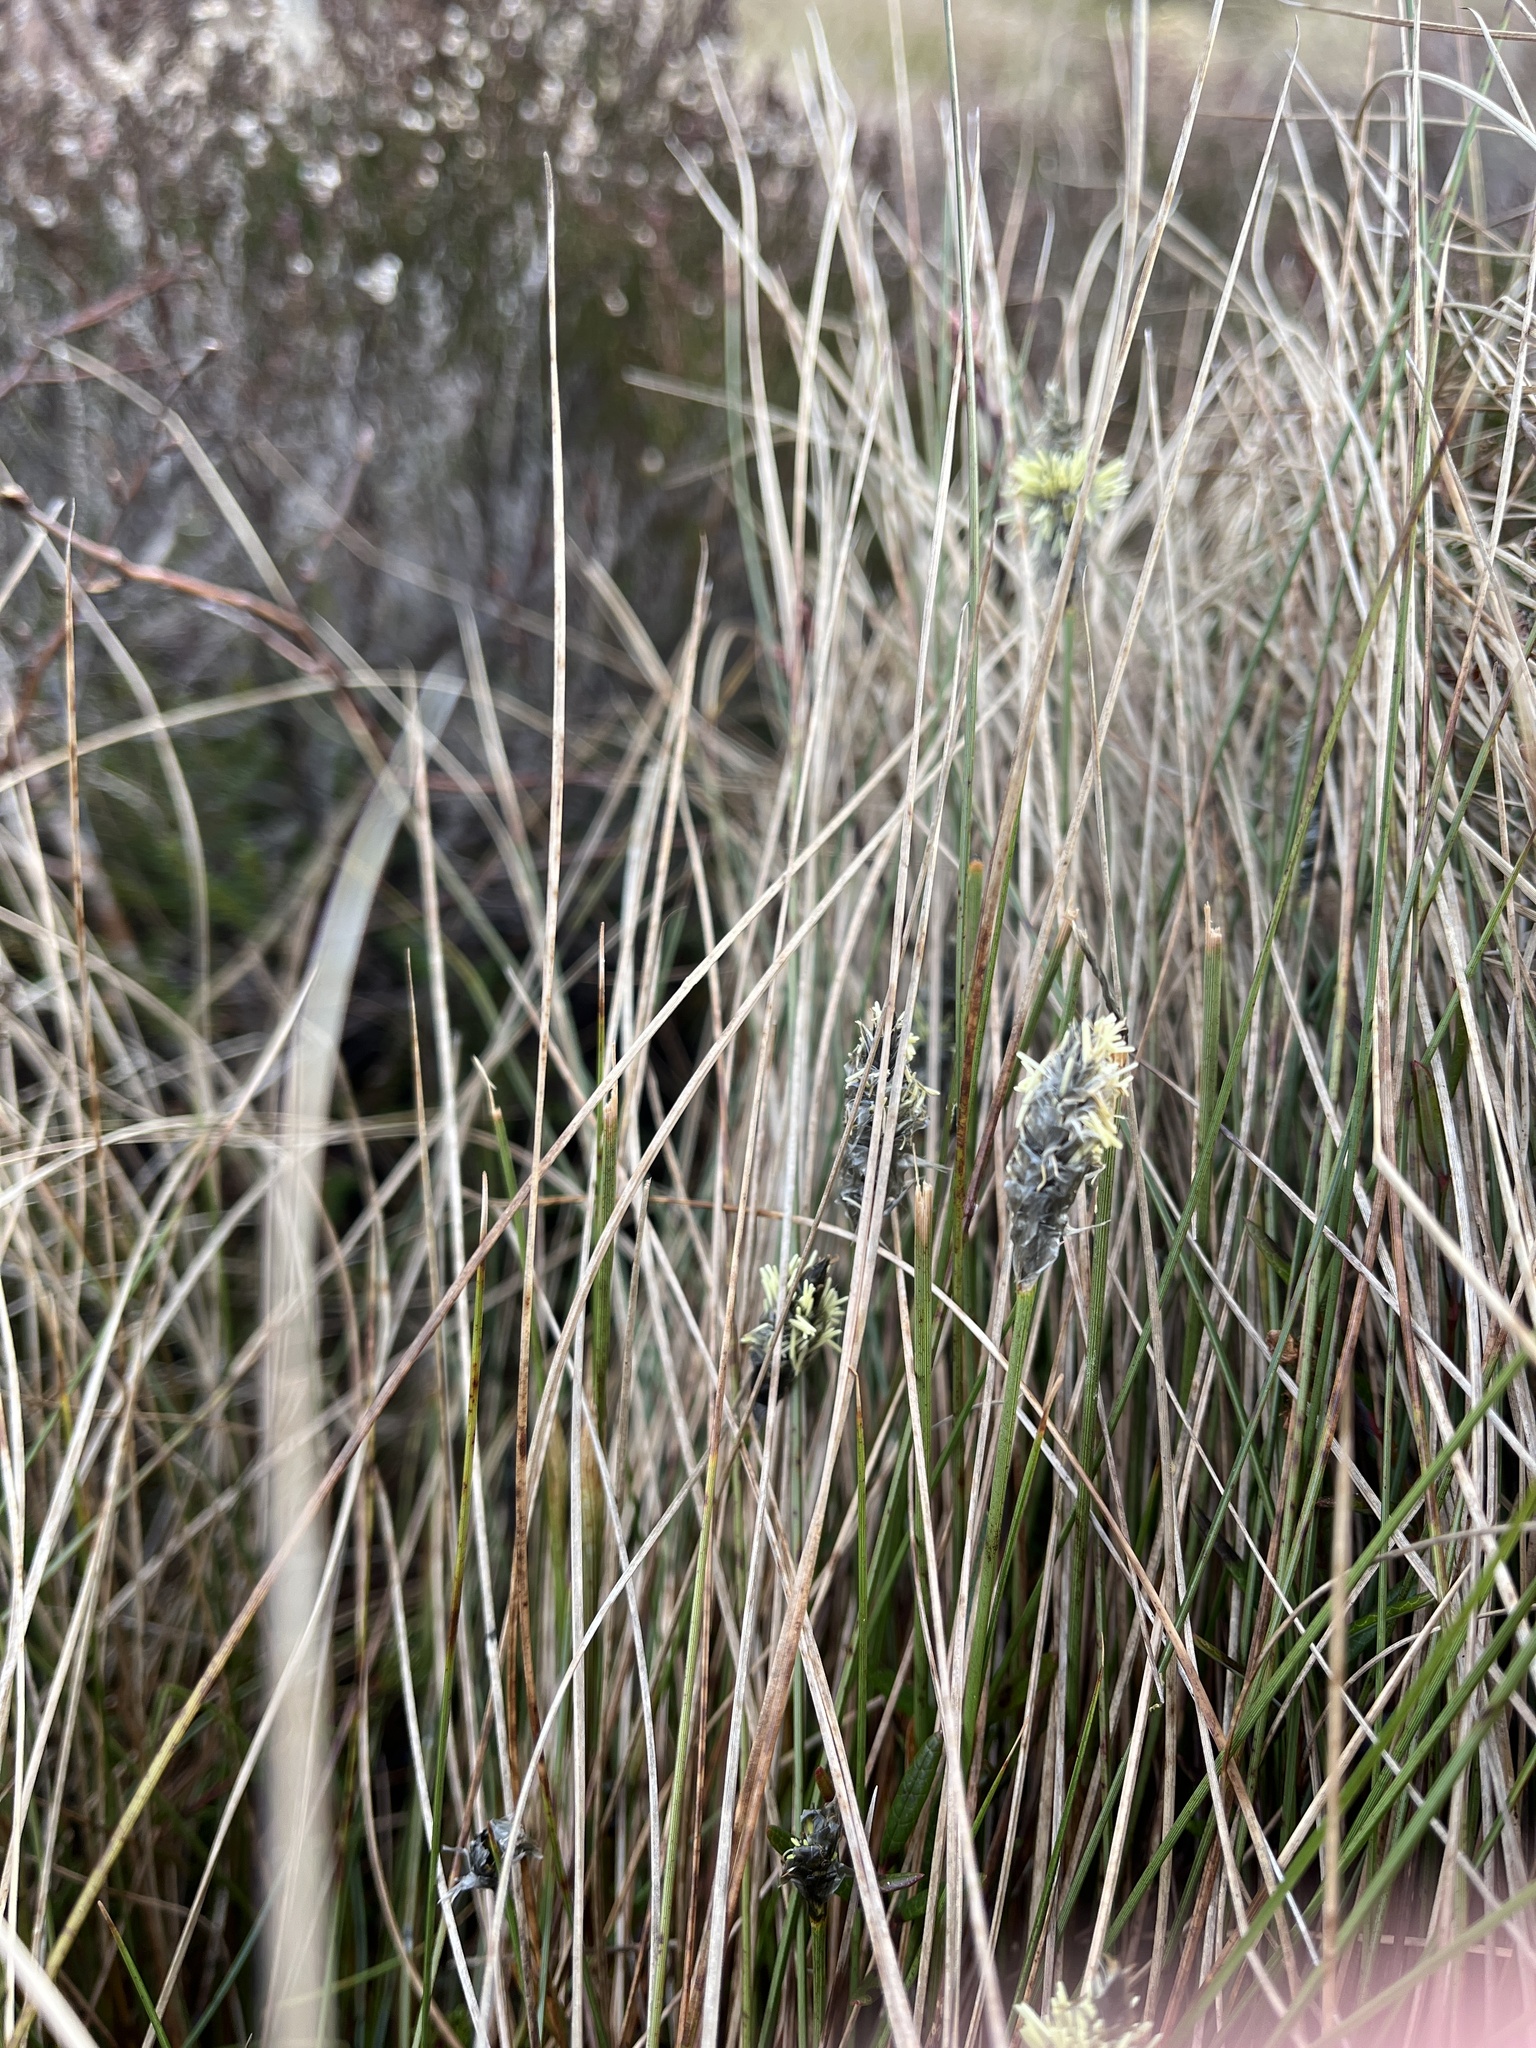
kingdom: Plantae
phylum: Tracheophyta
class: Liliopsida
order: Poales
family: Cyperaceae
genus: Eriophorum
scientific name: Eriophorum vaginatum
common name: Hare's-tail cottongrass
